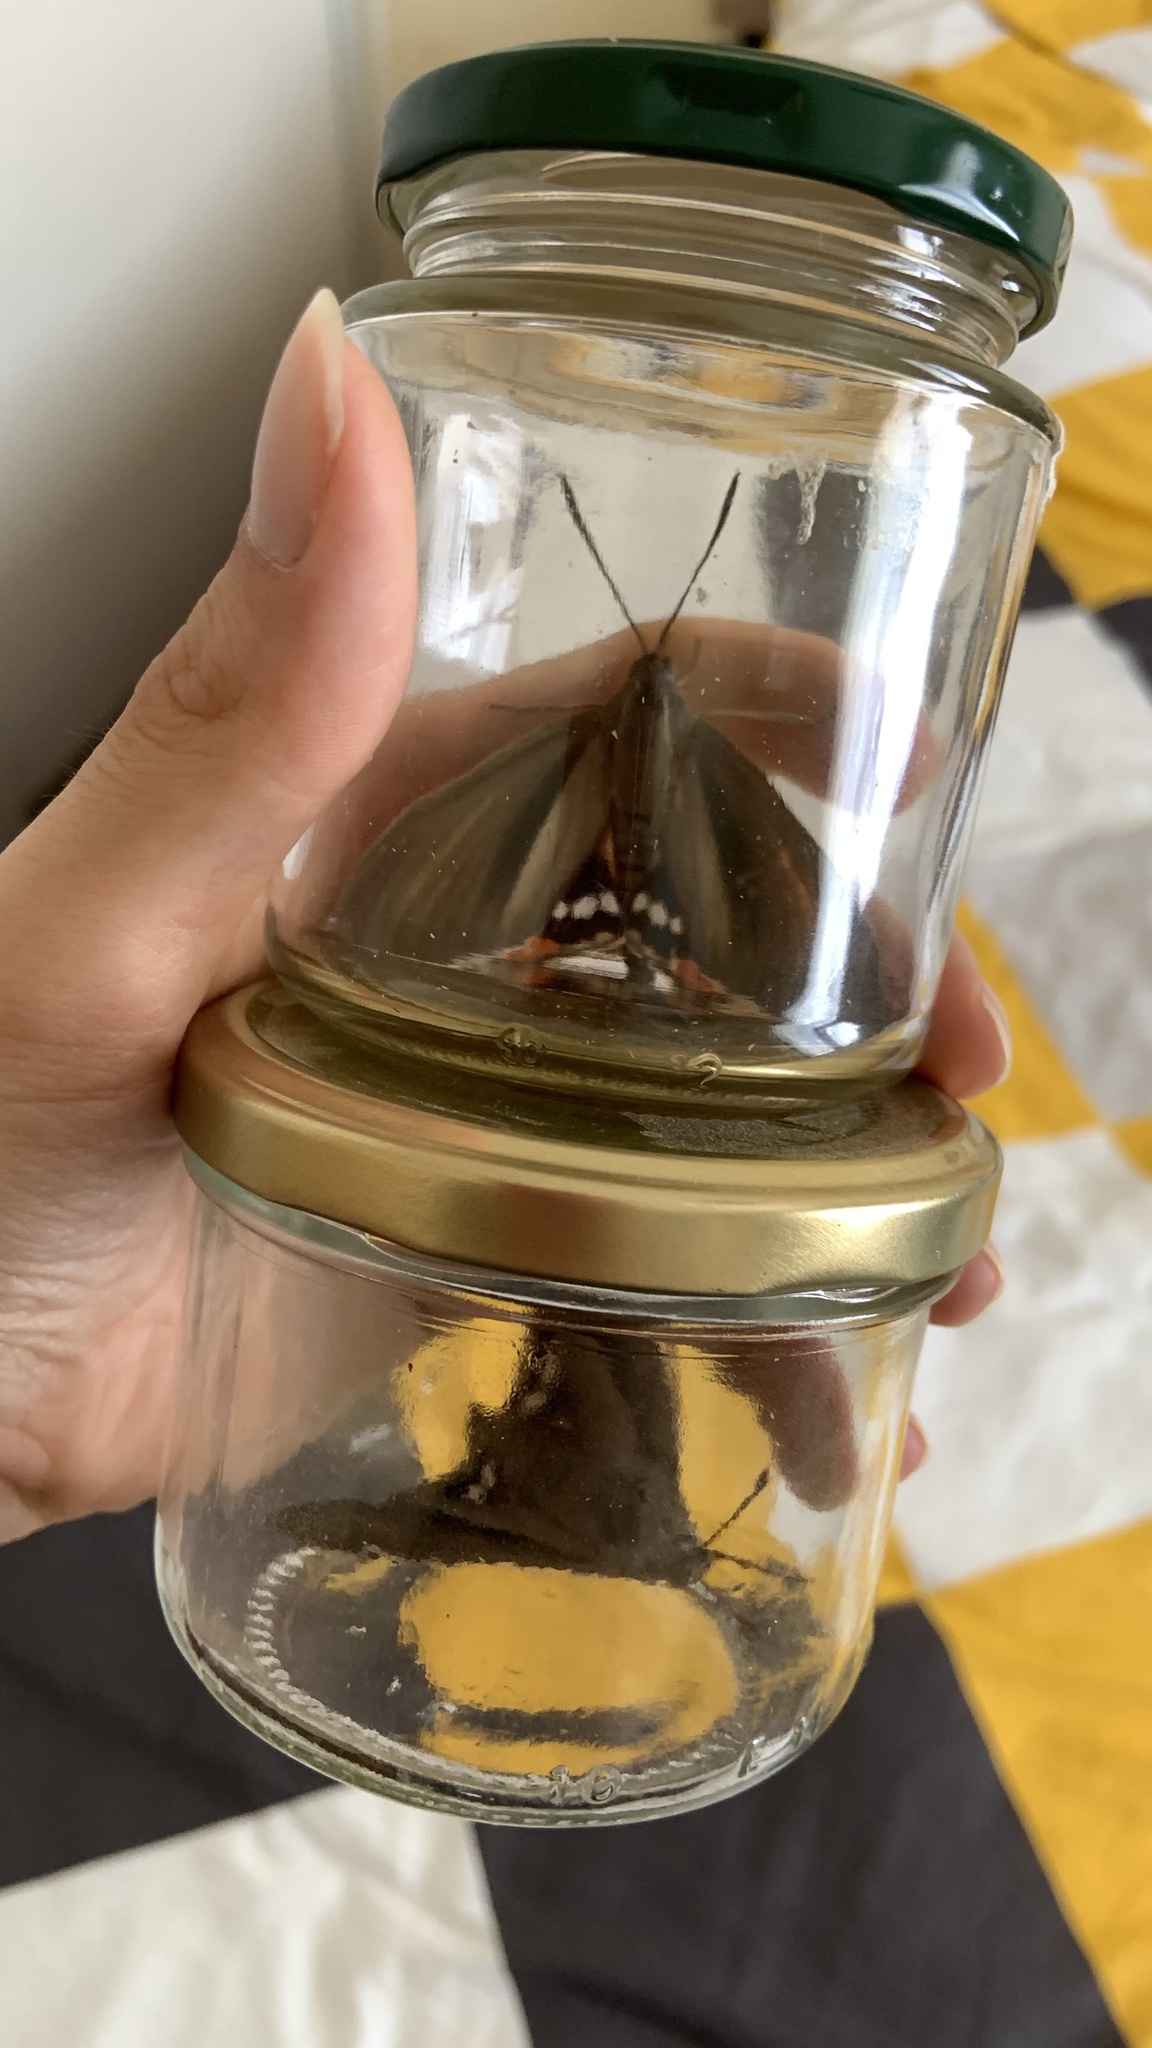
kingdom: Animalia
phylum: Arthropoda
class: Insecta
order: Lepidoptera
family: Castniidae
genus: Paysandisia
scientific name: Paysandisia archon
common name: Palm moth
